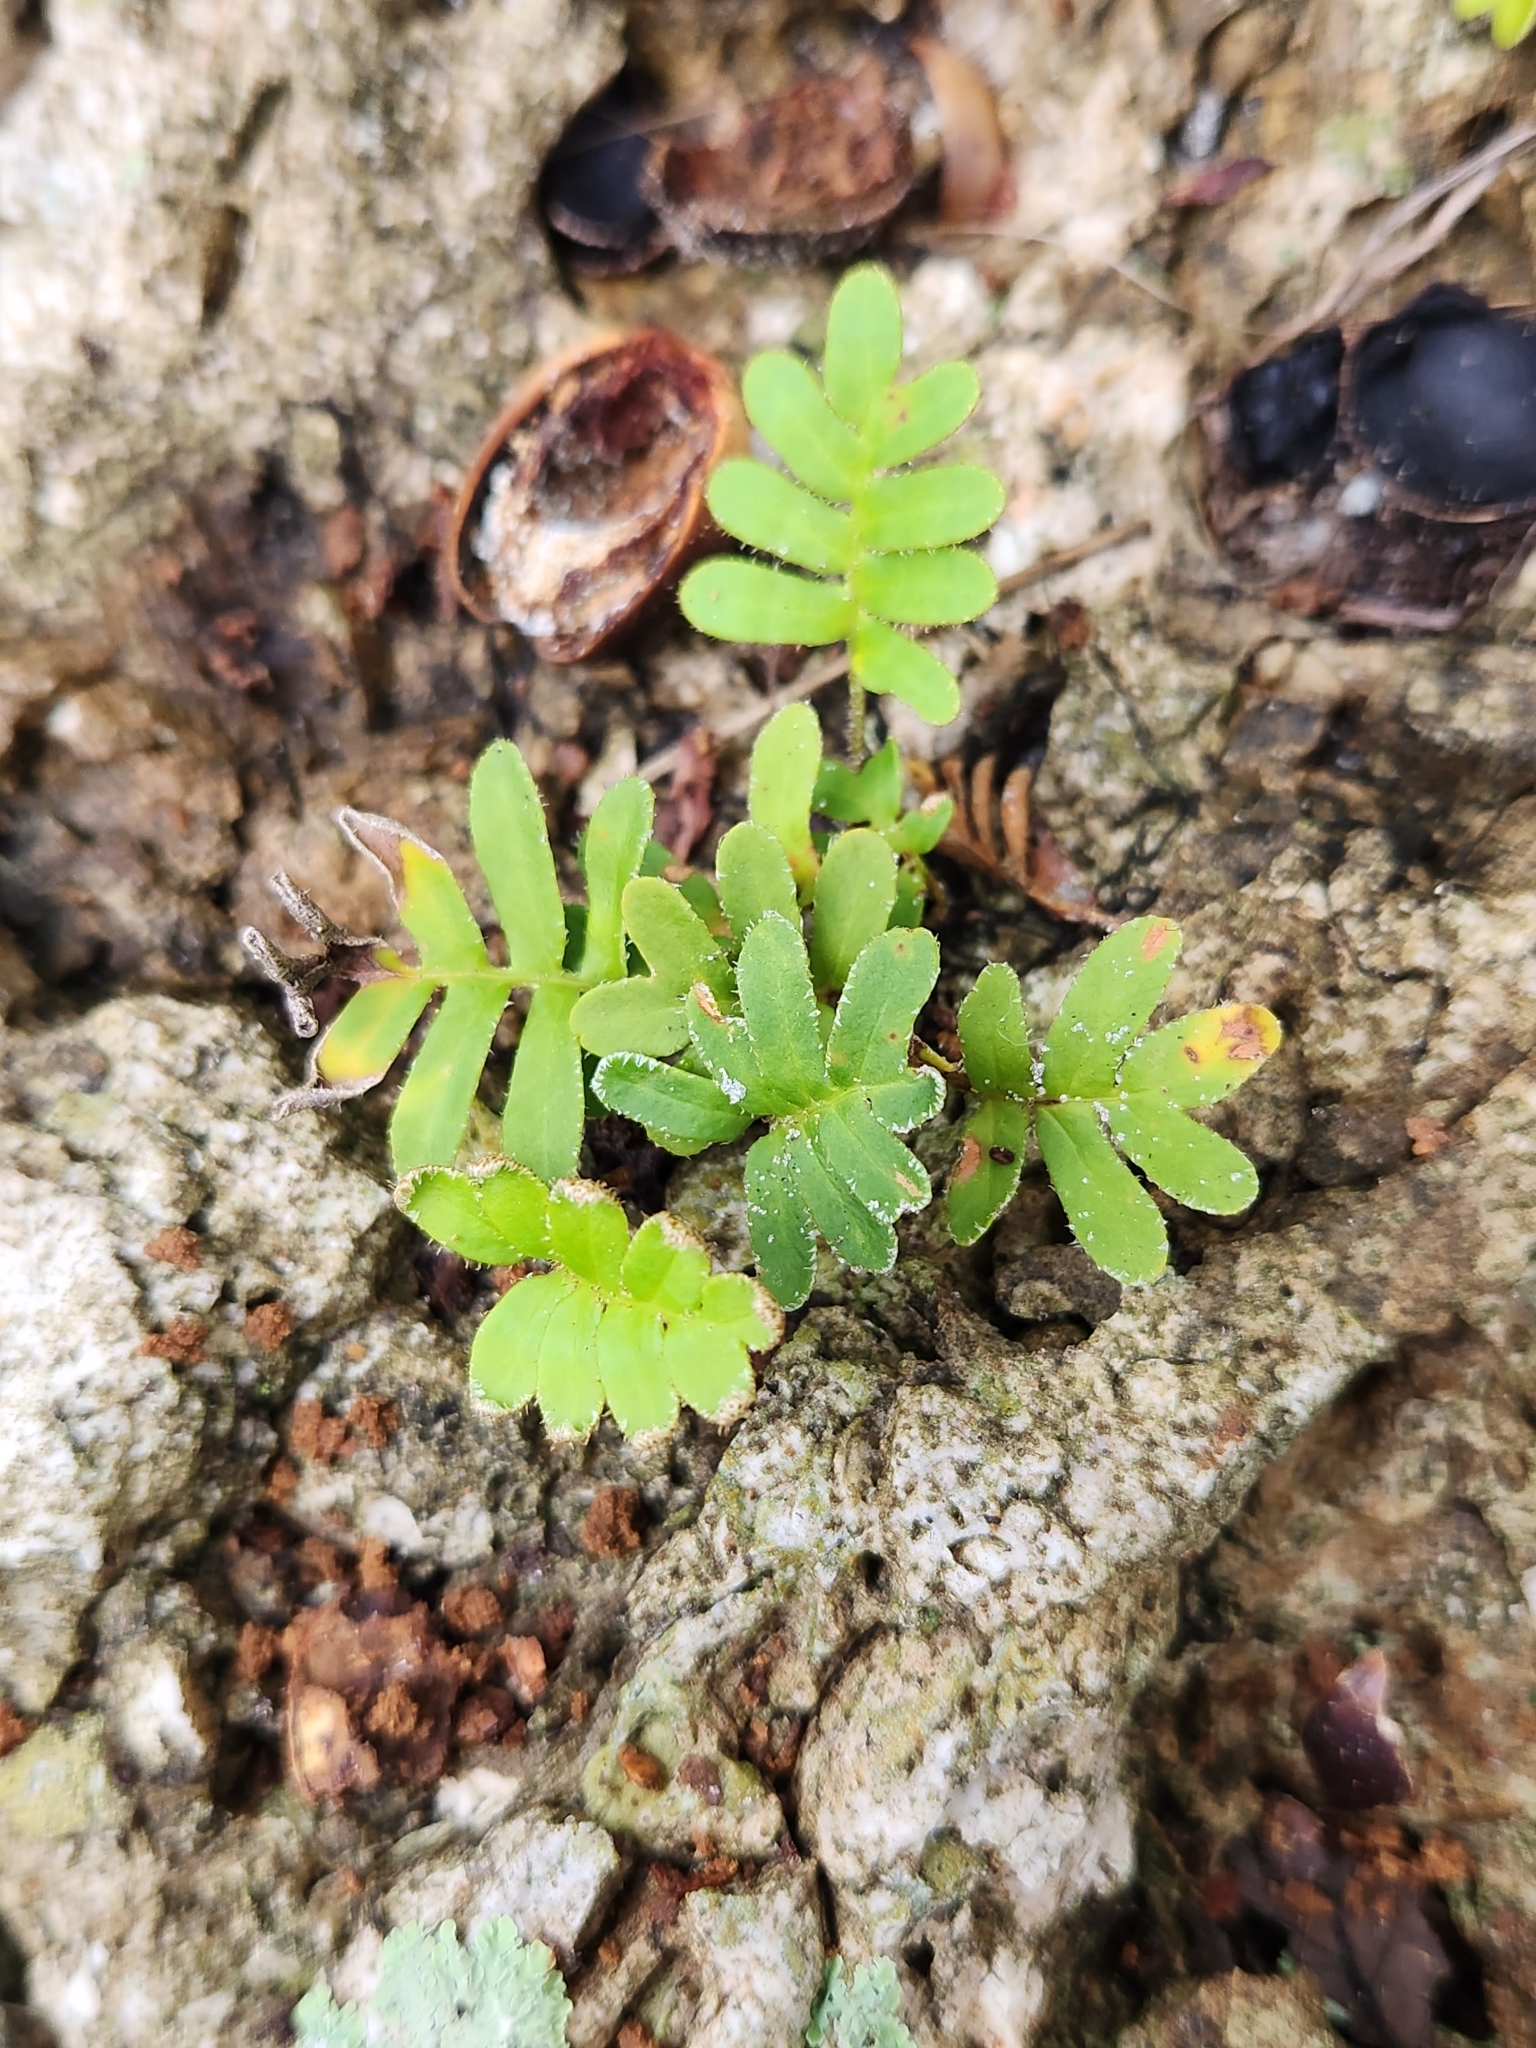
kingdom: Plantae
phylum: Tracheophyta
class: Polypodiopsida
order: Polypodiales
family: Polypodiaceae
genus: Pleopeltis
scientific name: Pleopeltis michauxiana
